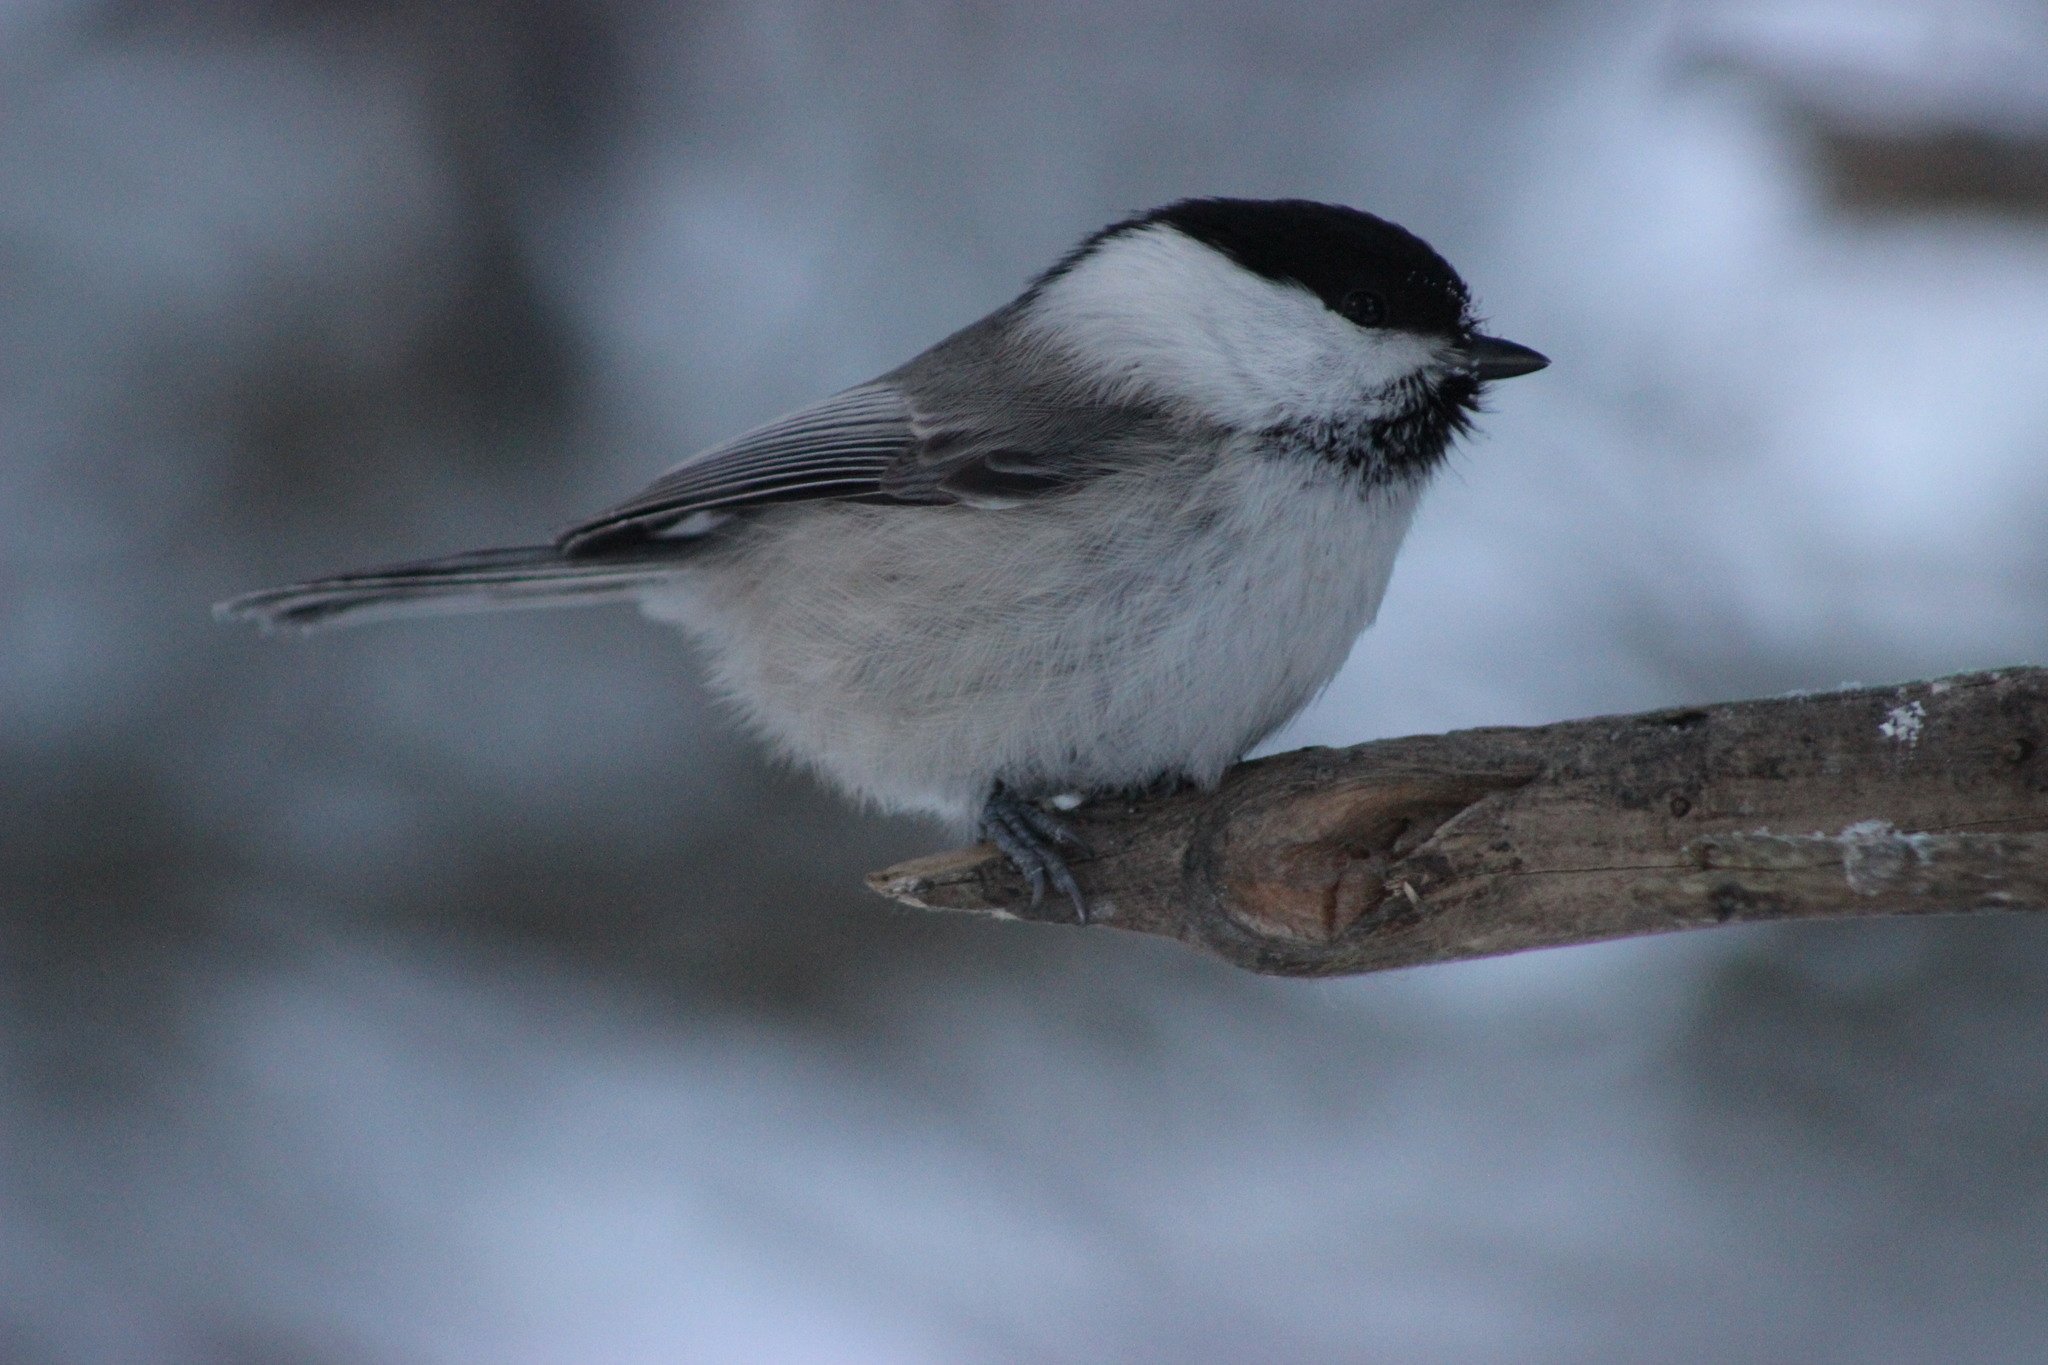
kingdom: Animalia
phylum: Chordata
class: Aves
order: Passeriformes
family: Paridae
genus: Poecile
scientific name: Poecile montanus
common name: Willow tit
